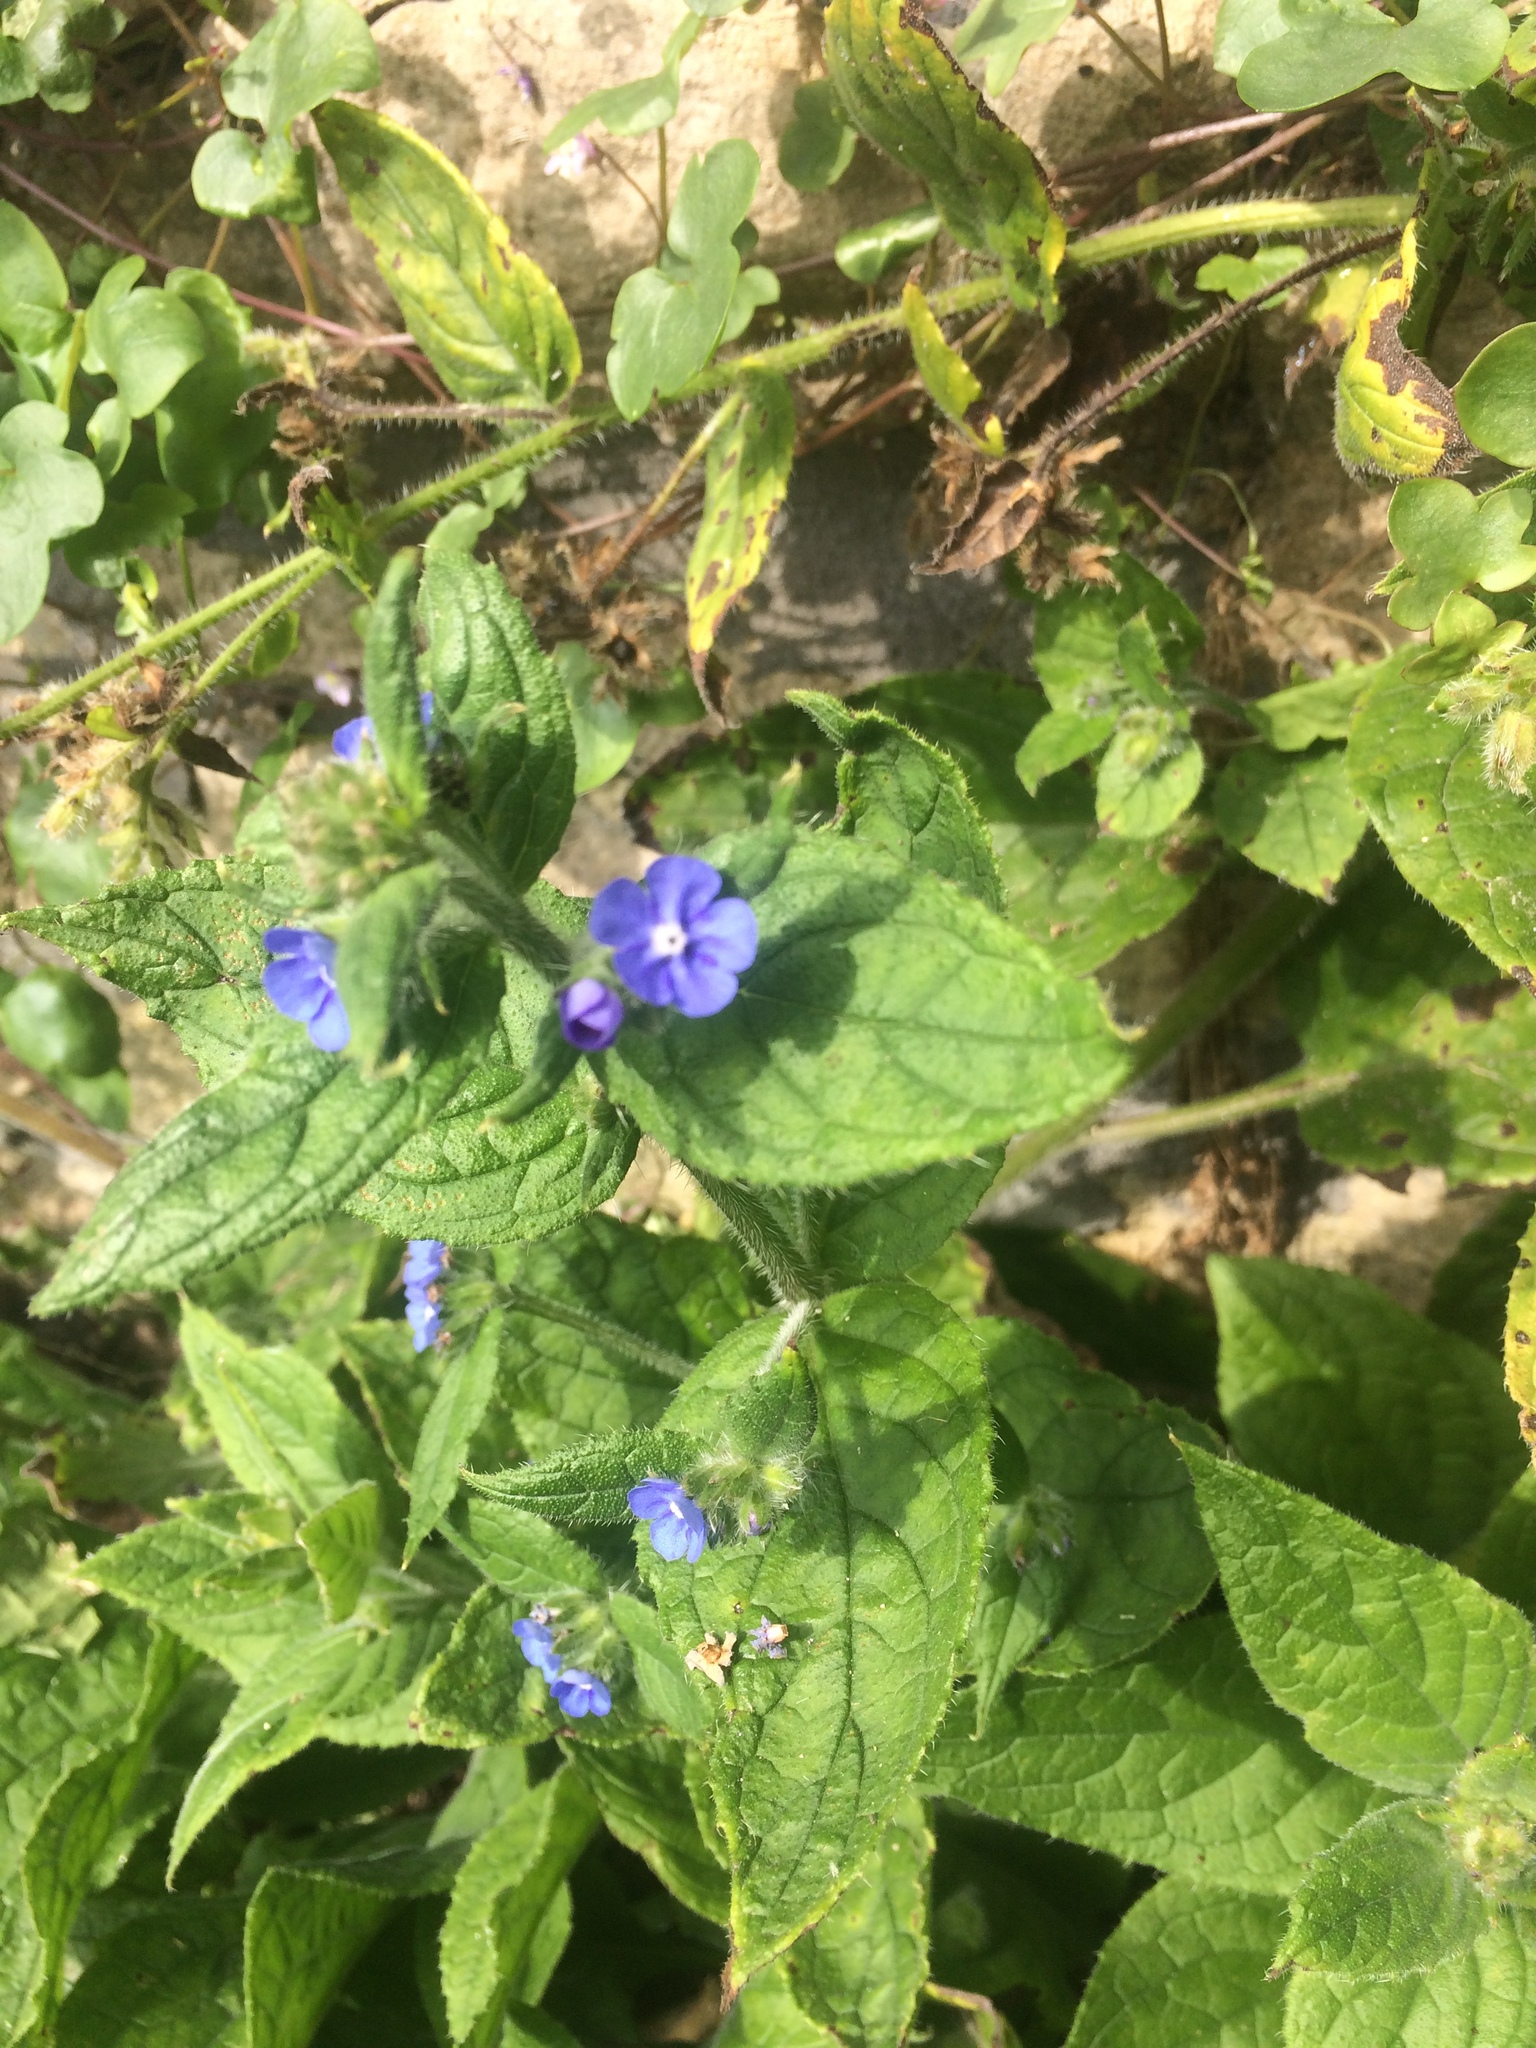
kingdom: Plantae
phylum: Tracheophyta
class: Magnoliopsida
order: Boraginales
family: Boraginaceae
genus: Pentaglottis
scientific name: Pentaglottis sempervirens
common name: Green alkanet
